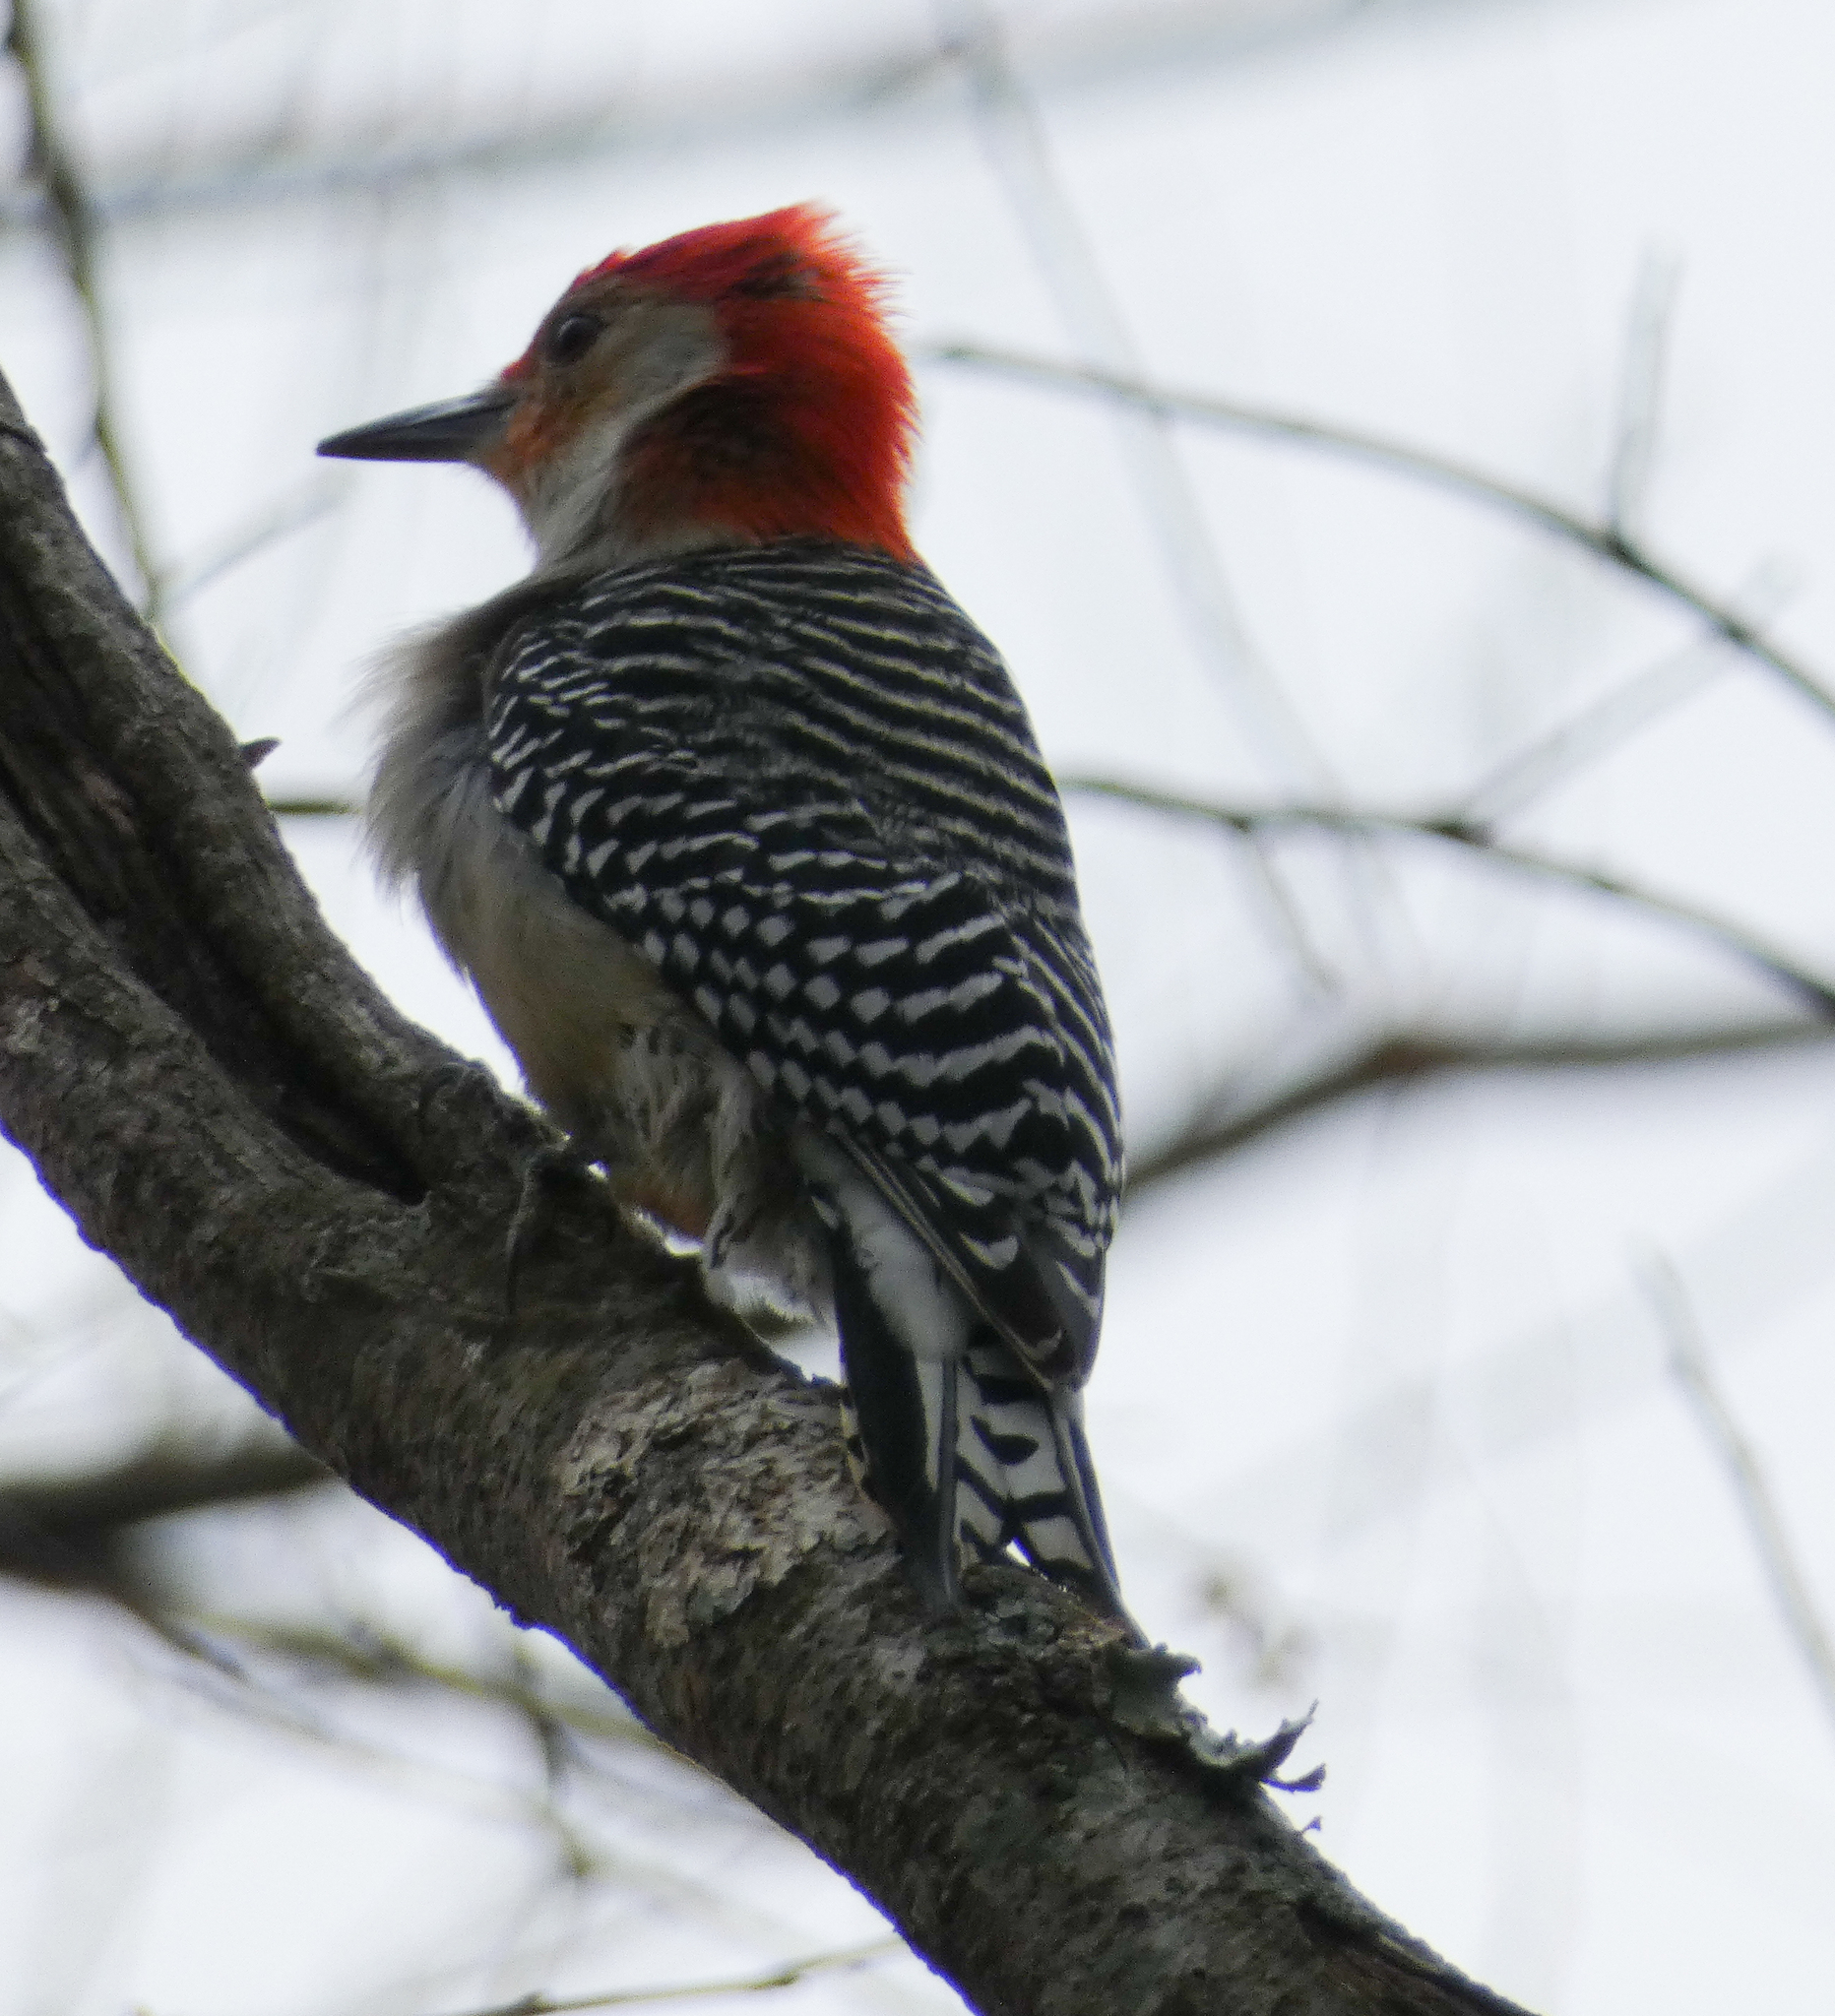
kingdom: Animalia
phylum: Chordata
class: Aves
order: Piciformes
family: Picidae
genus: Melanerpes
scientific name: Melanerpes carolinus
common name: Red-bellied woodpecker
